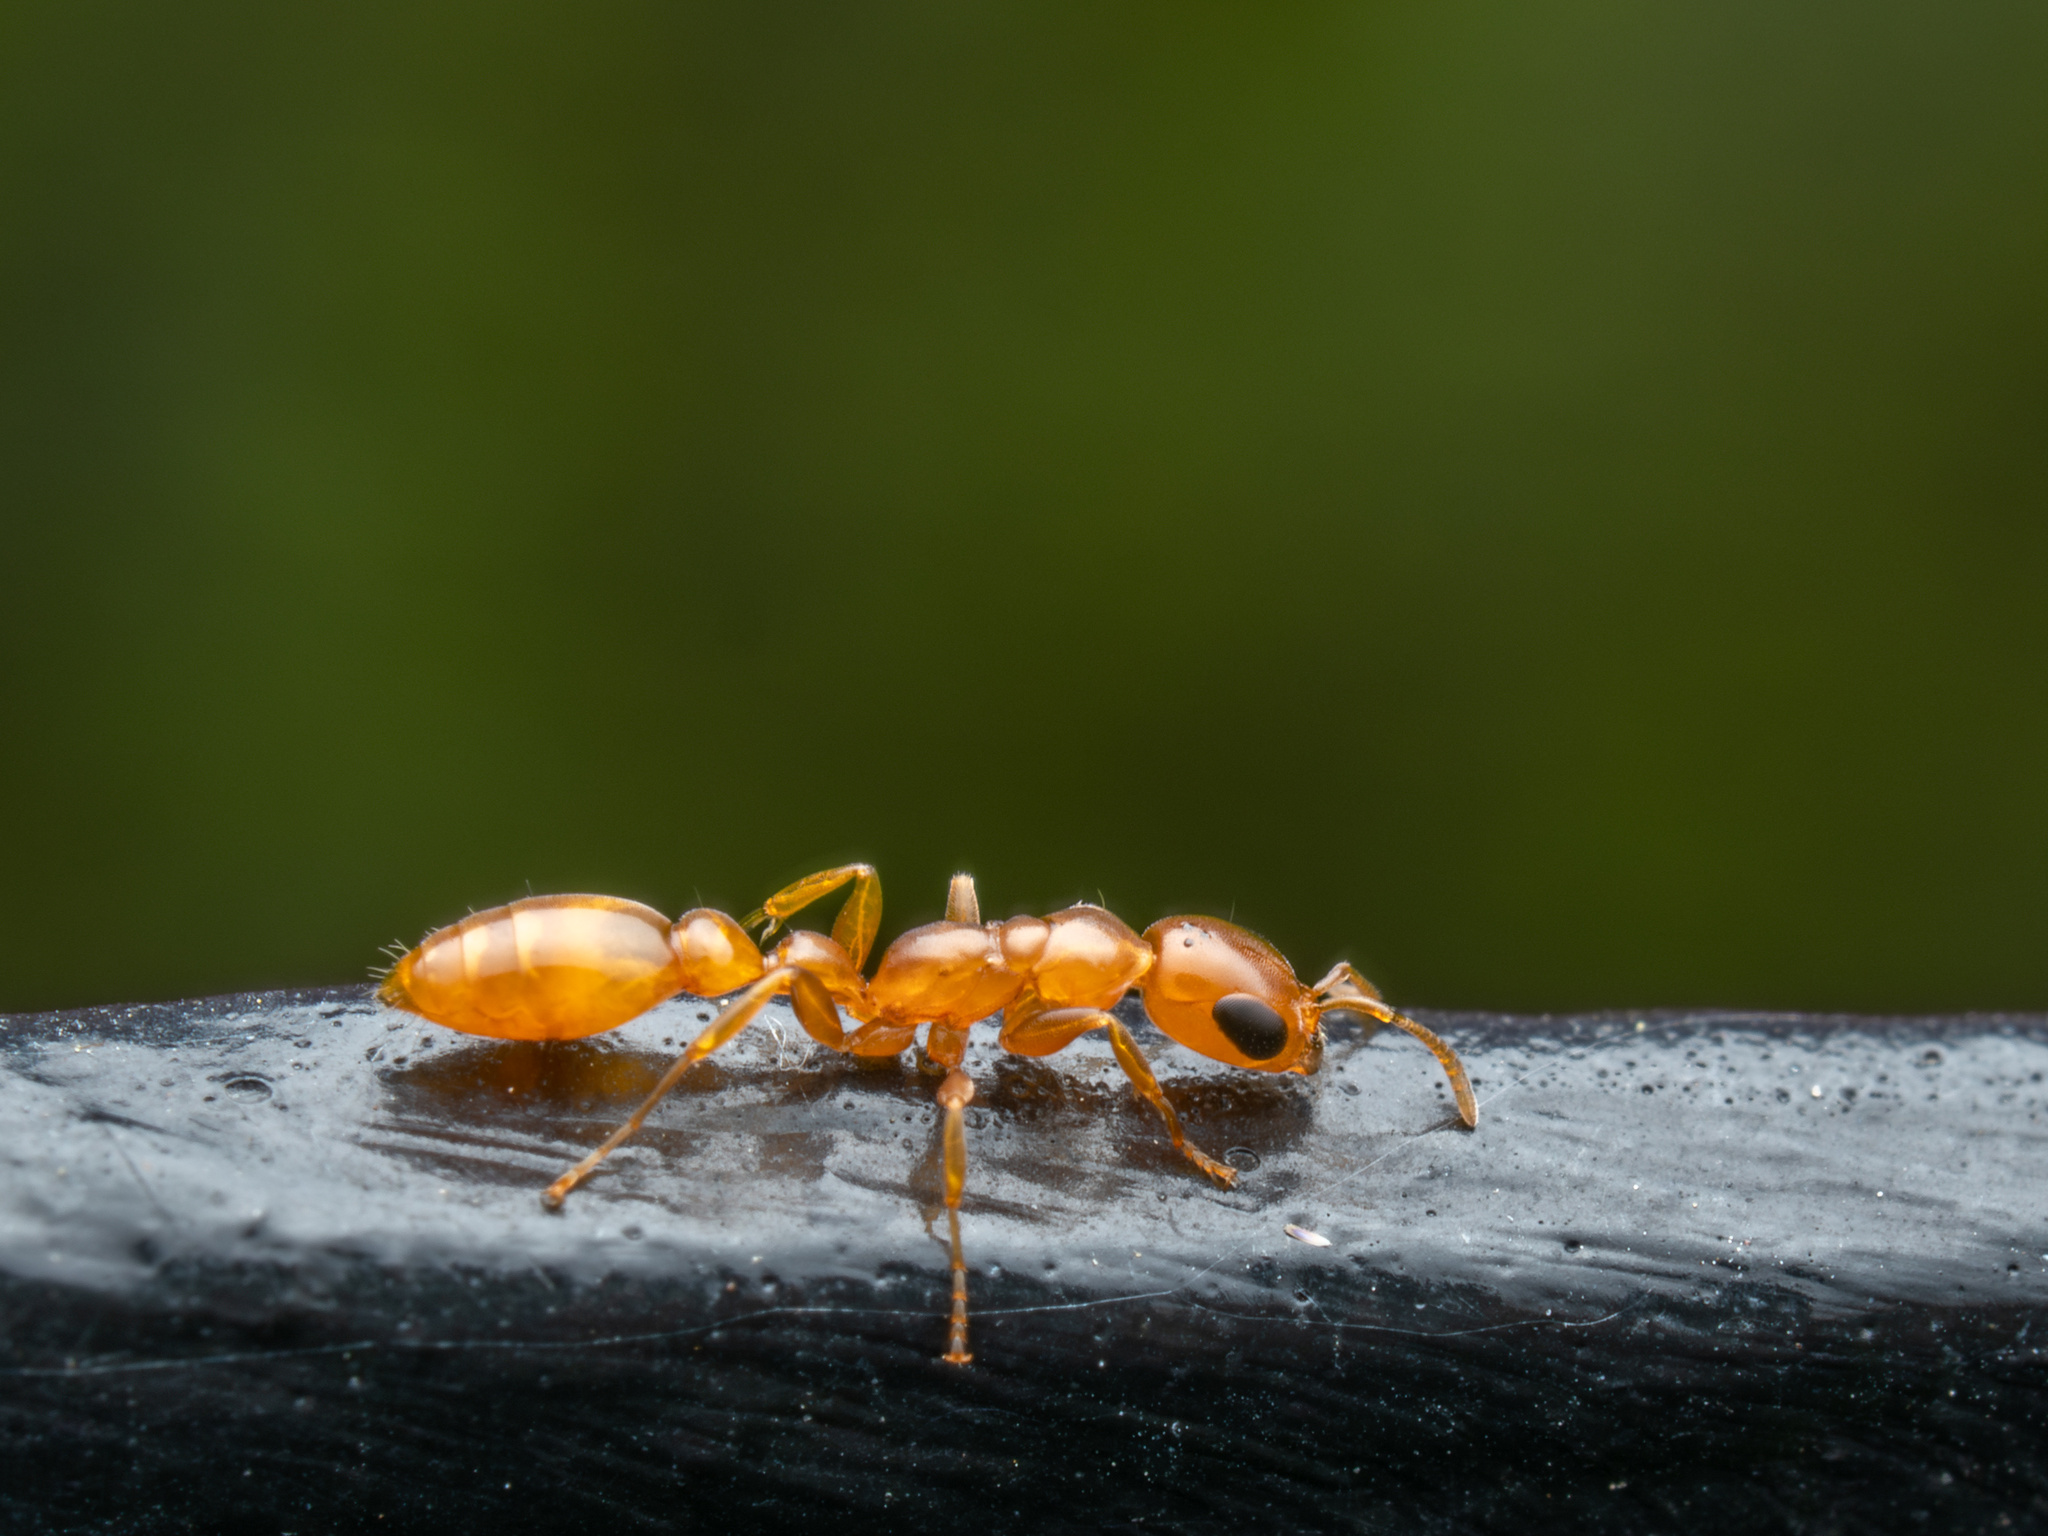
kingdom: Animalia
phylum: Arthropoda
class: Insecta
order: Hymenoptera
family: Formicidae
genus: Pseudomyrmex
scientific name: Pseudomyrmex pallidus
